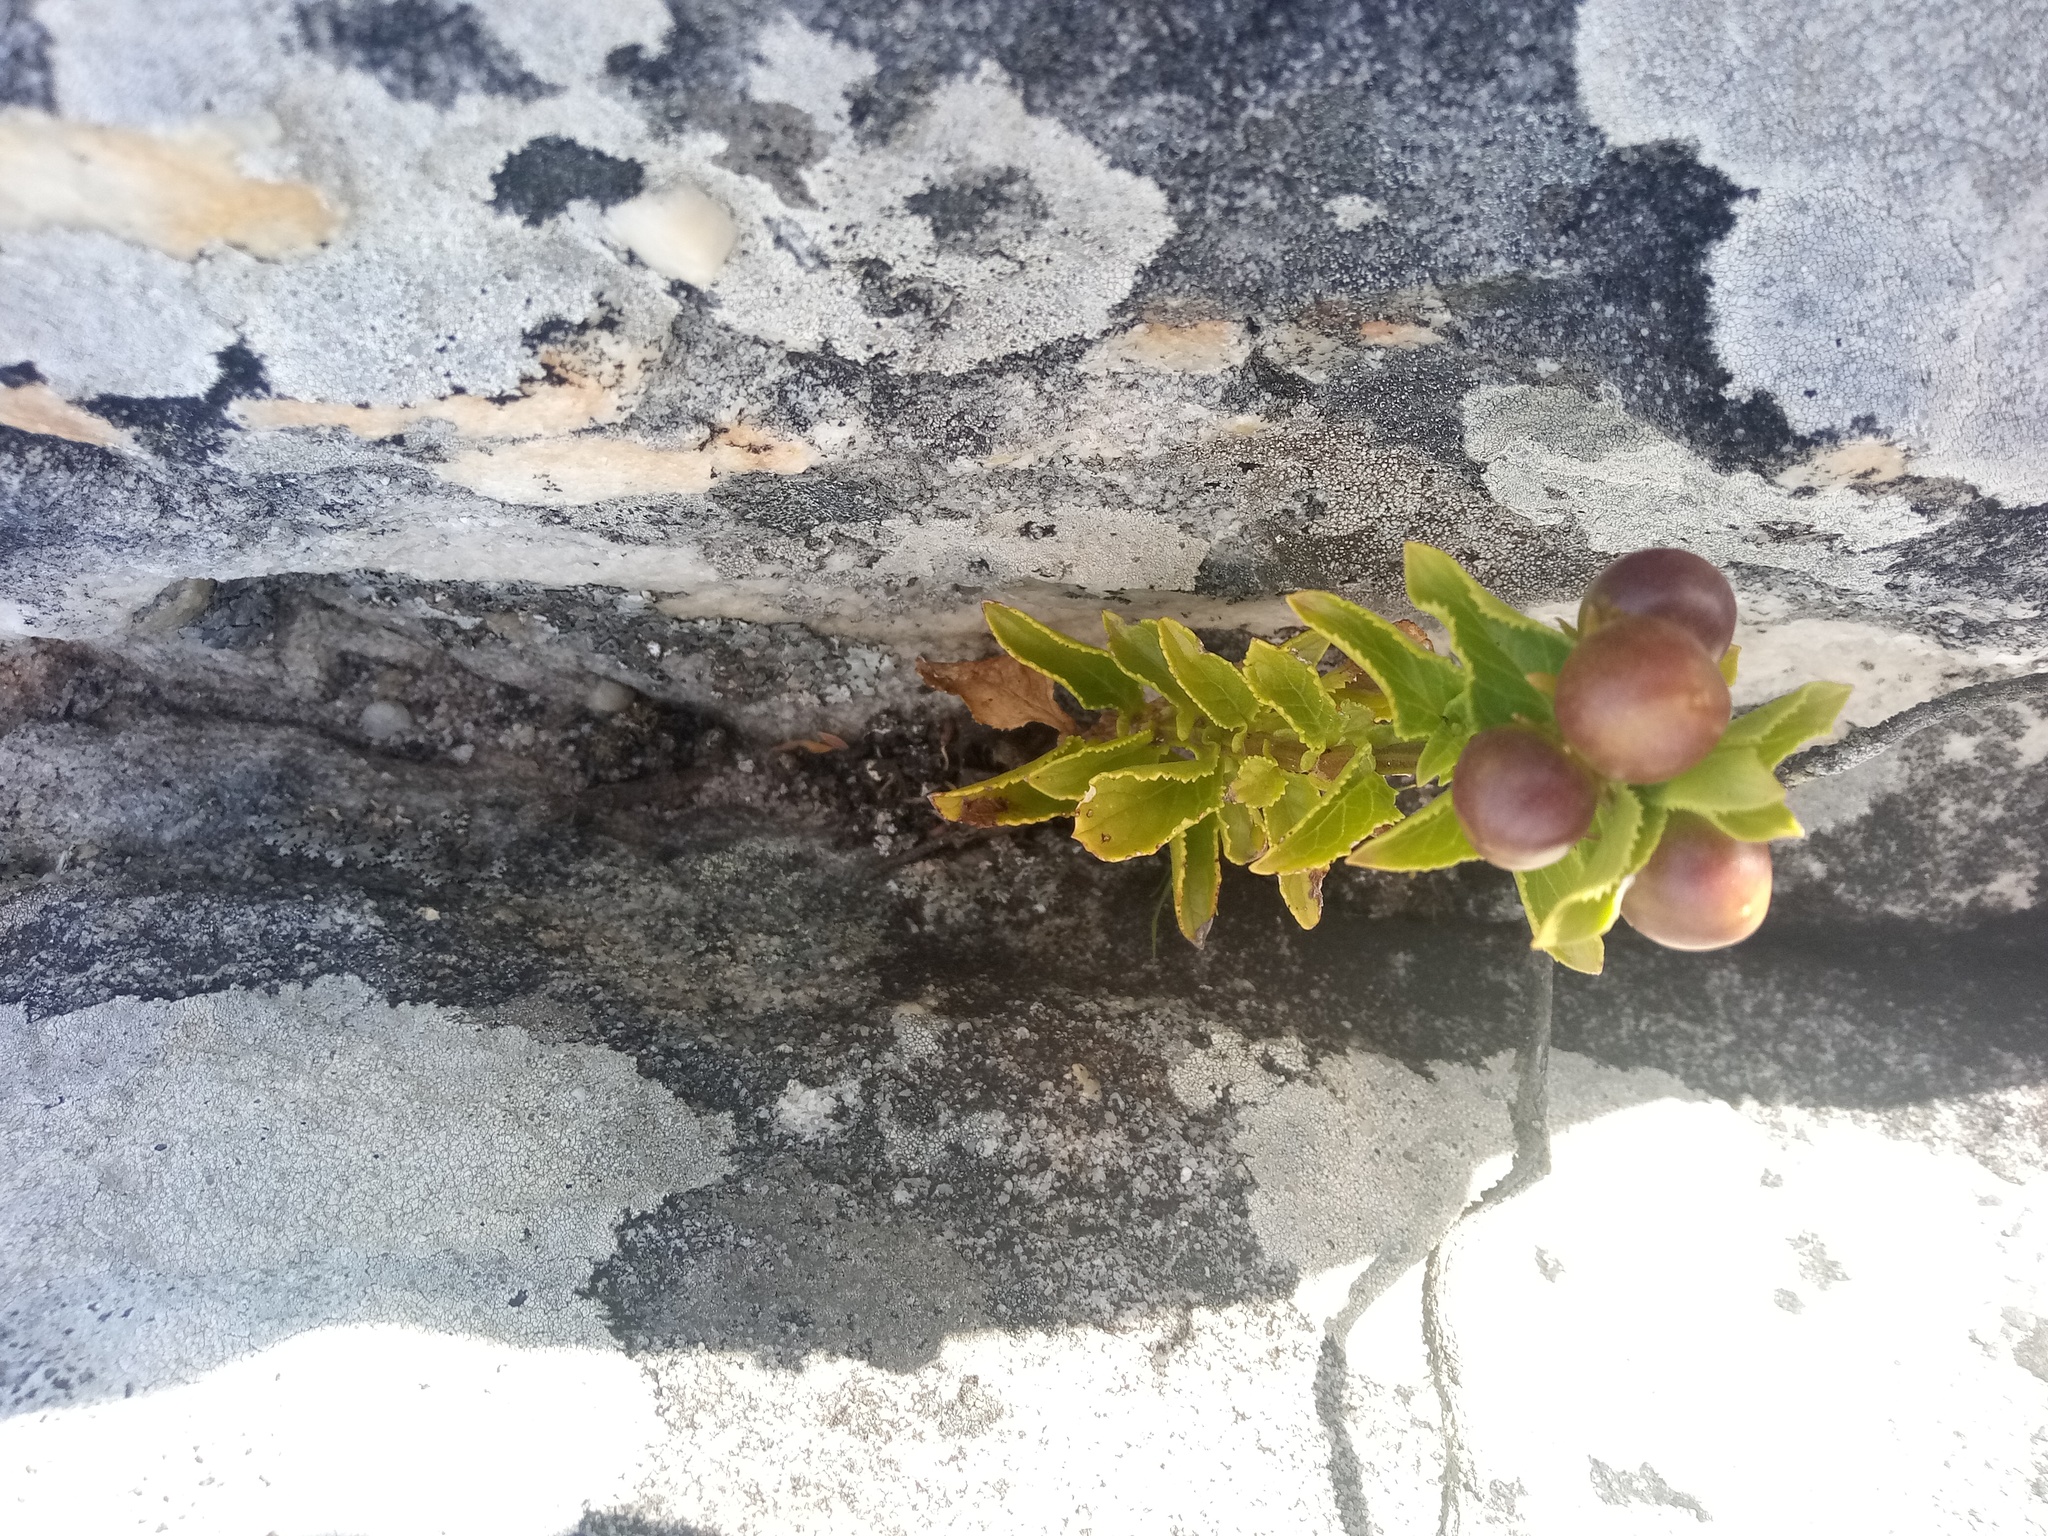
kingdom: Plantae
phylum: Tracheophyta
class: Magnoliopsida
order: Lamiales
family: Scrophulariaceae
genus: Teedia
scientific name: Teedia lucida
